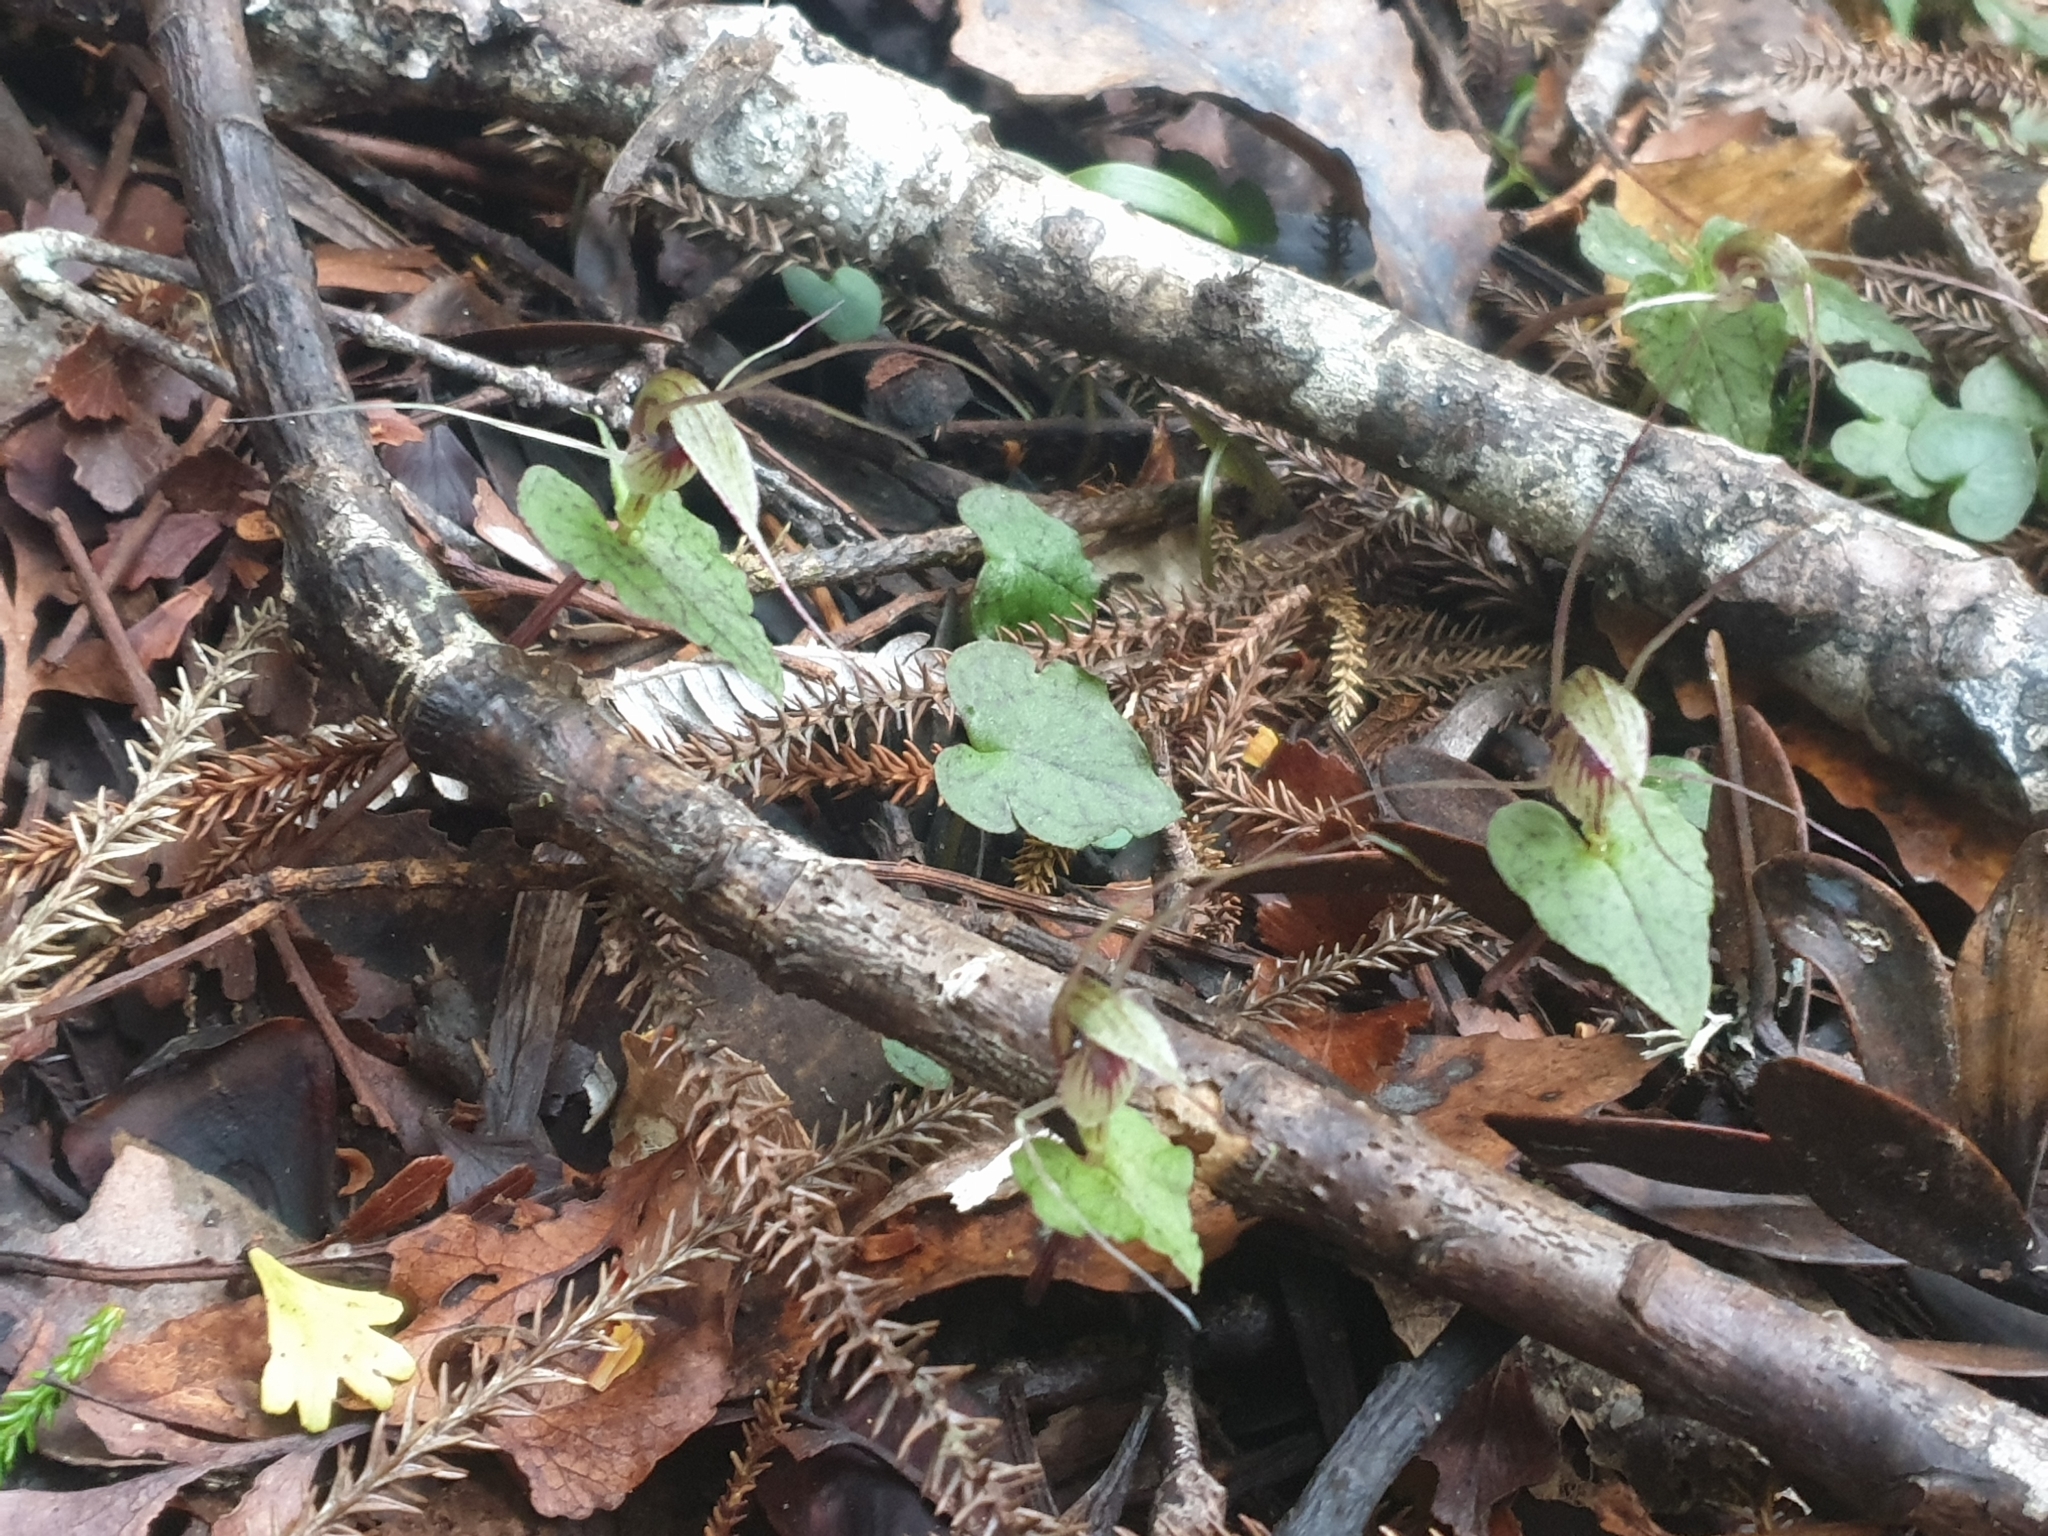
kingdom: Plantae
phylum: Tracheophyta
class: Liliopsida
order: Asparagales
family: Orchidaceae
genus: Corybas
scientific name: Corybas acuminatus
